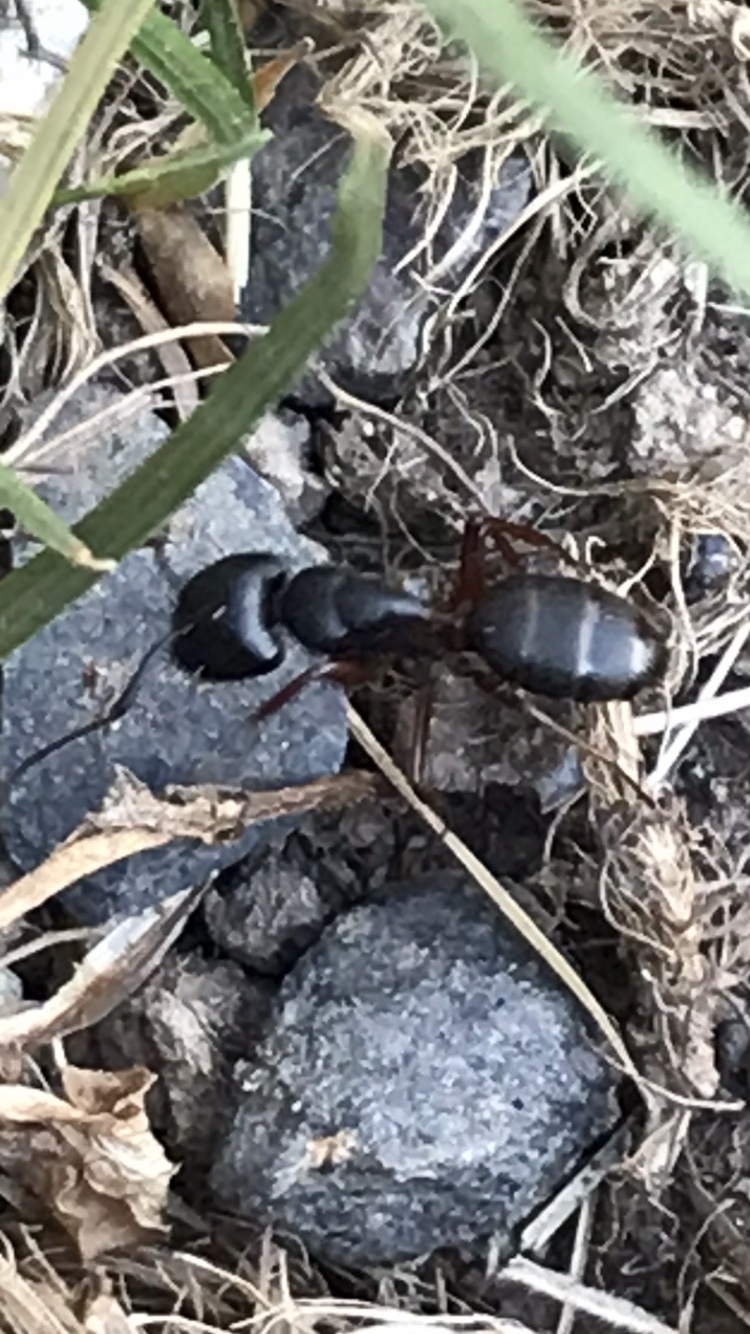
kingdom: Animalia
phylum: Arthropoda
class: Insecta
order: Hymenoptera
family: Formicidae
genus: Camponotus
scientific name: Camponotus modoc
